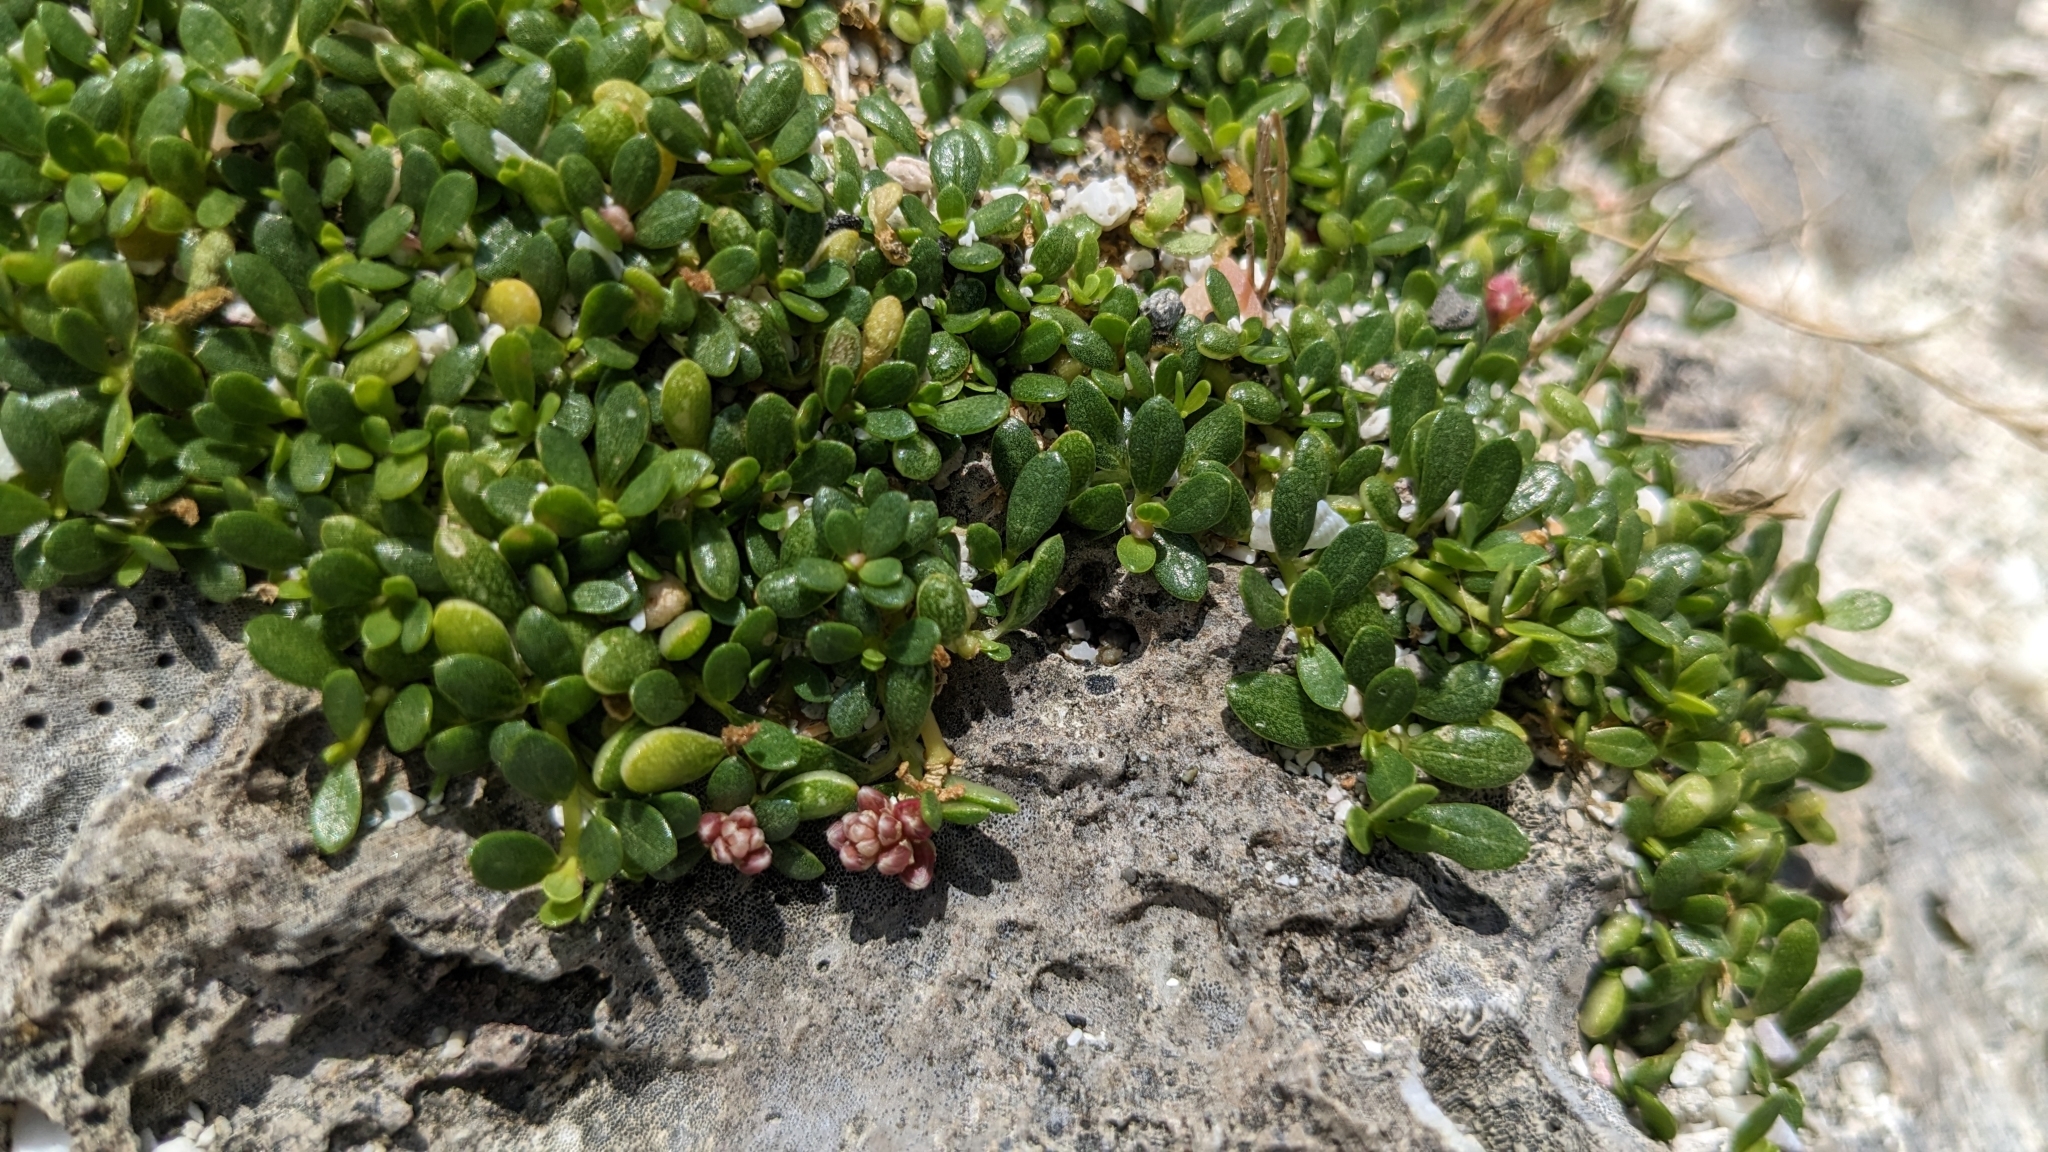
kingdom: Plantae
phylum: Tracheophyta
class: Magnoliopsida
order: Caryophyllales
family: Amaranthaceae
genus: Gomphrena
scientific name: Gomphrena wrightii
